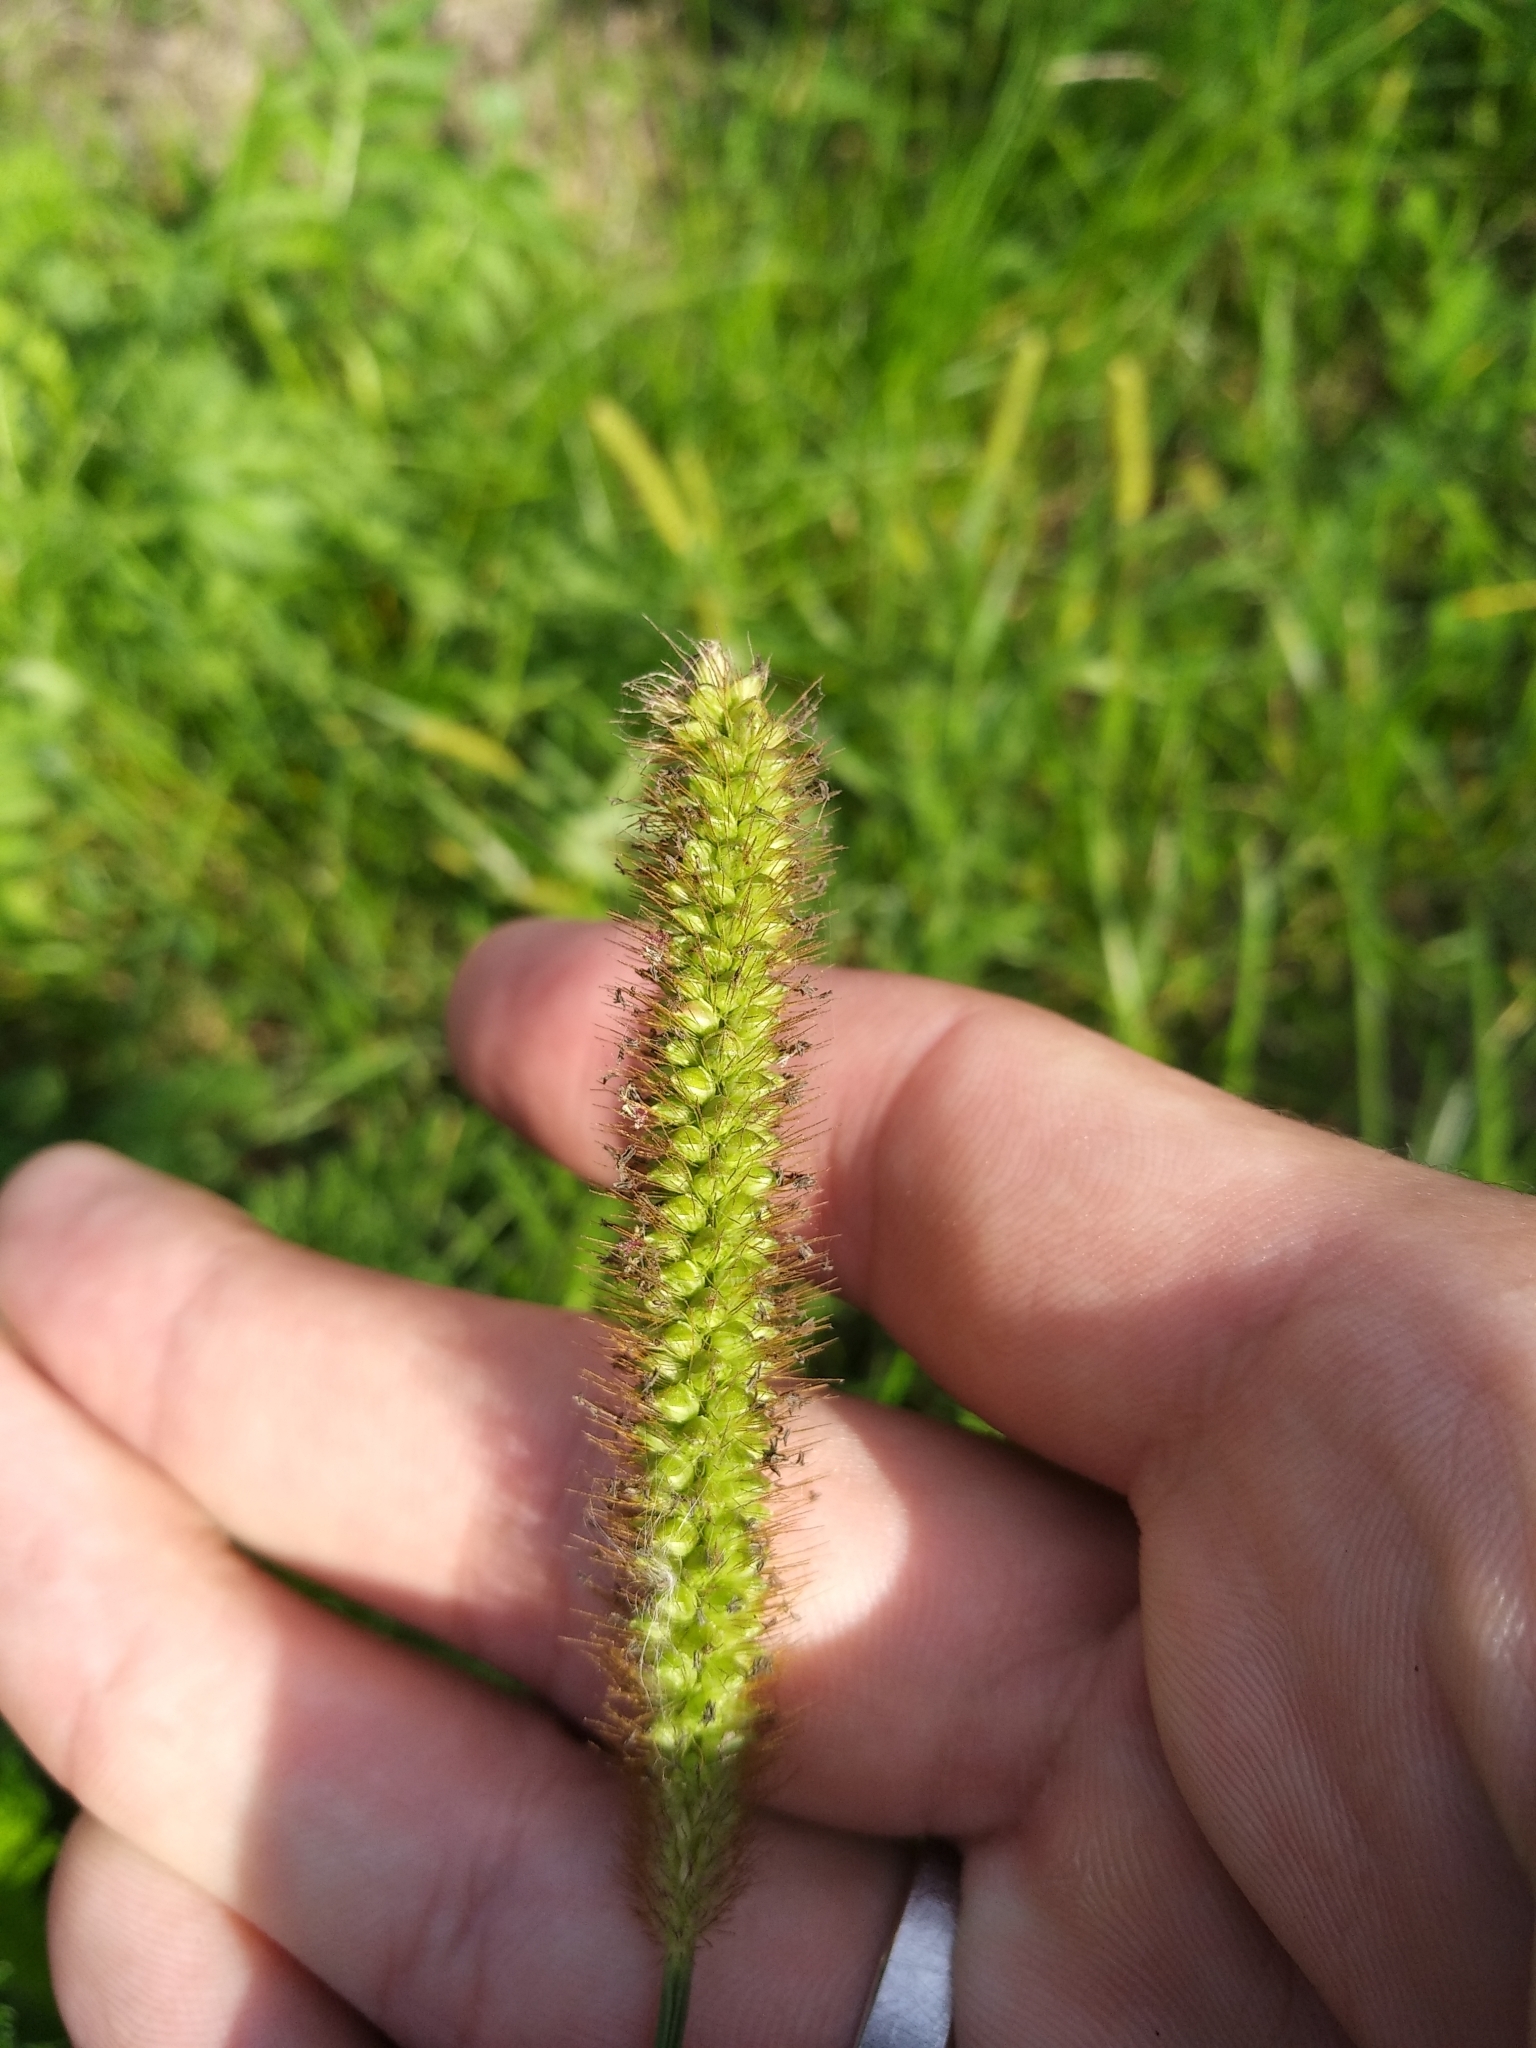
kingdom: Plantae
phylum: Tracheophyta
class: Liliopsida
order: Poales
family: Poaceae
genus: Setaria
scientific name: Setaria pumila
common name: Yellow bristle-grass
